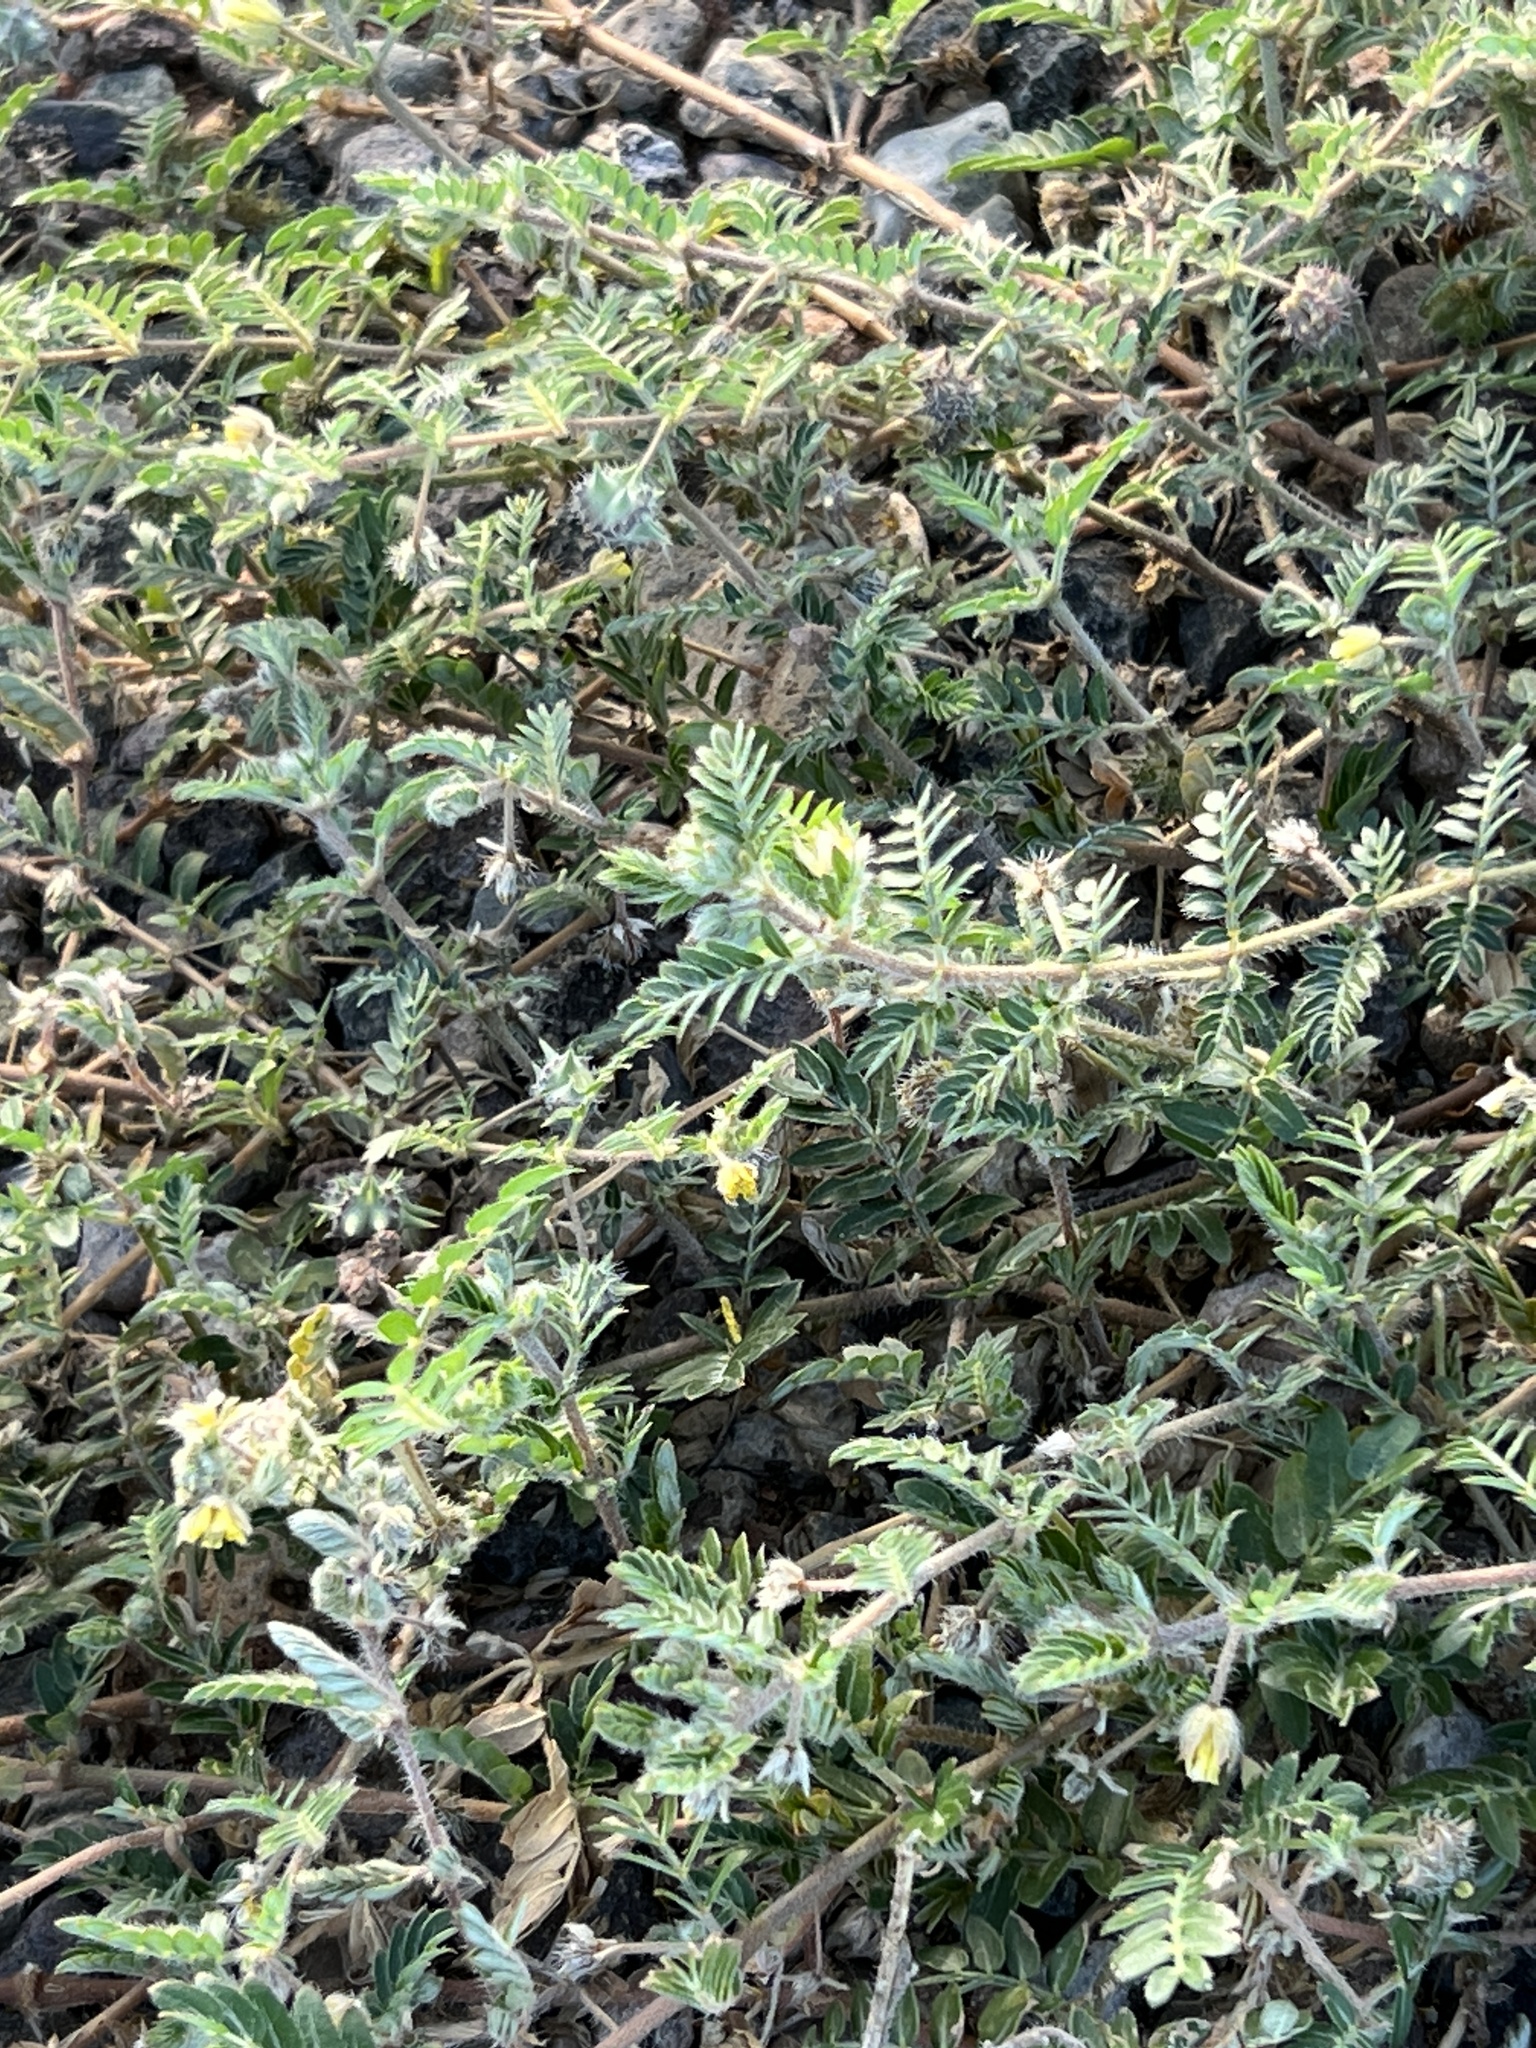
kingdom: Plantae
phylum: Tracheophyta
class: Magnoliopsida
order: Zygophyllales
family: Zygophyllaceae
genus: Tribulus
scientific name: Tribulus terrestris
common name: Puncturevine
